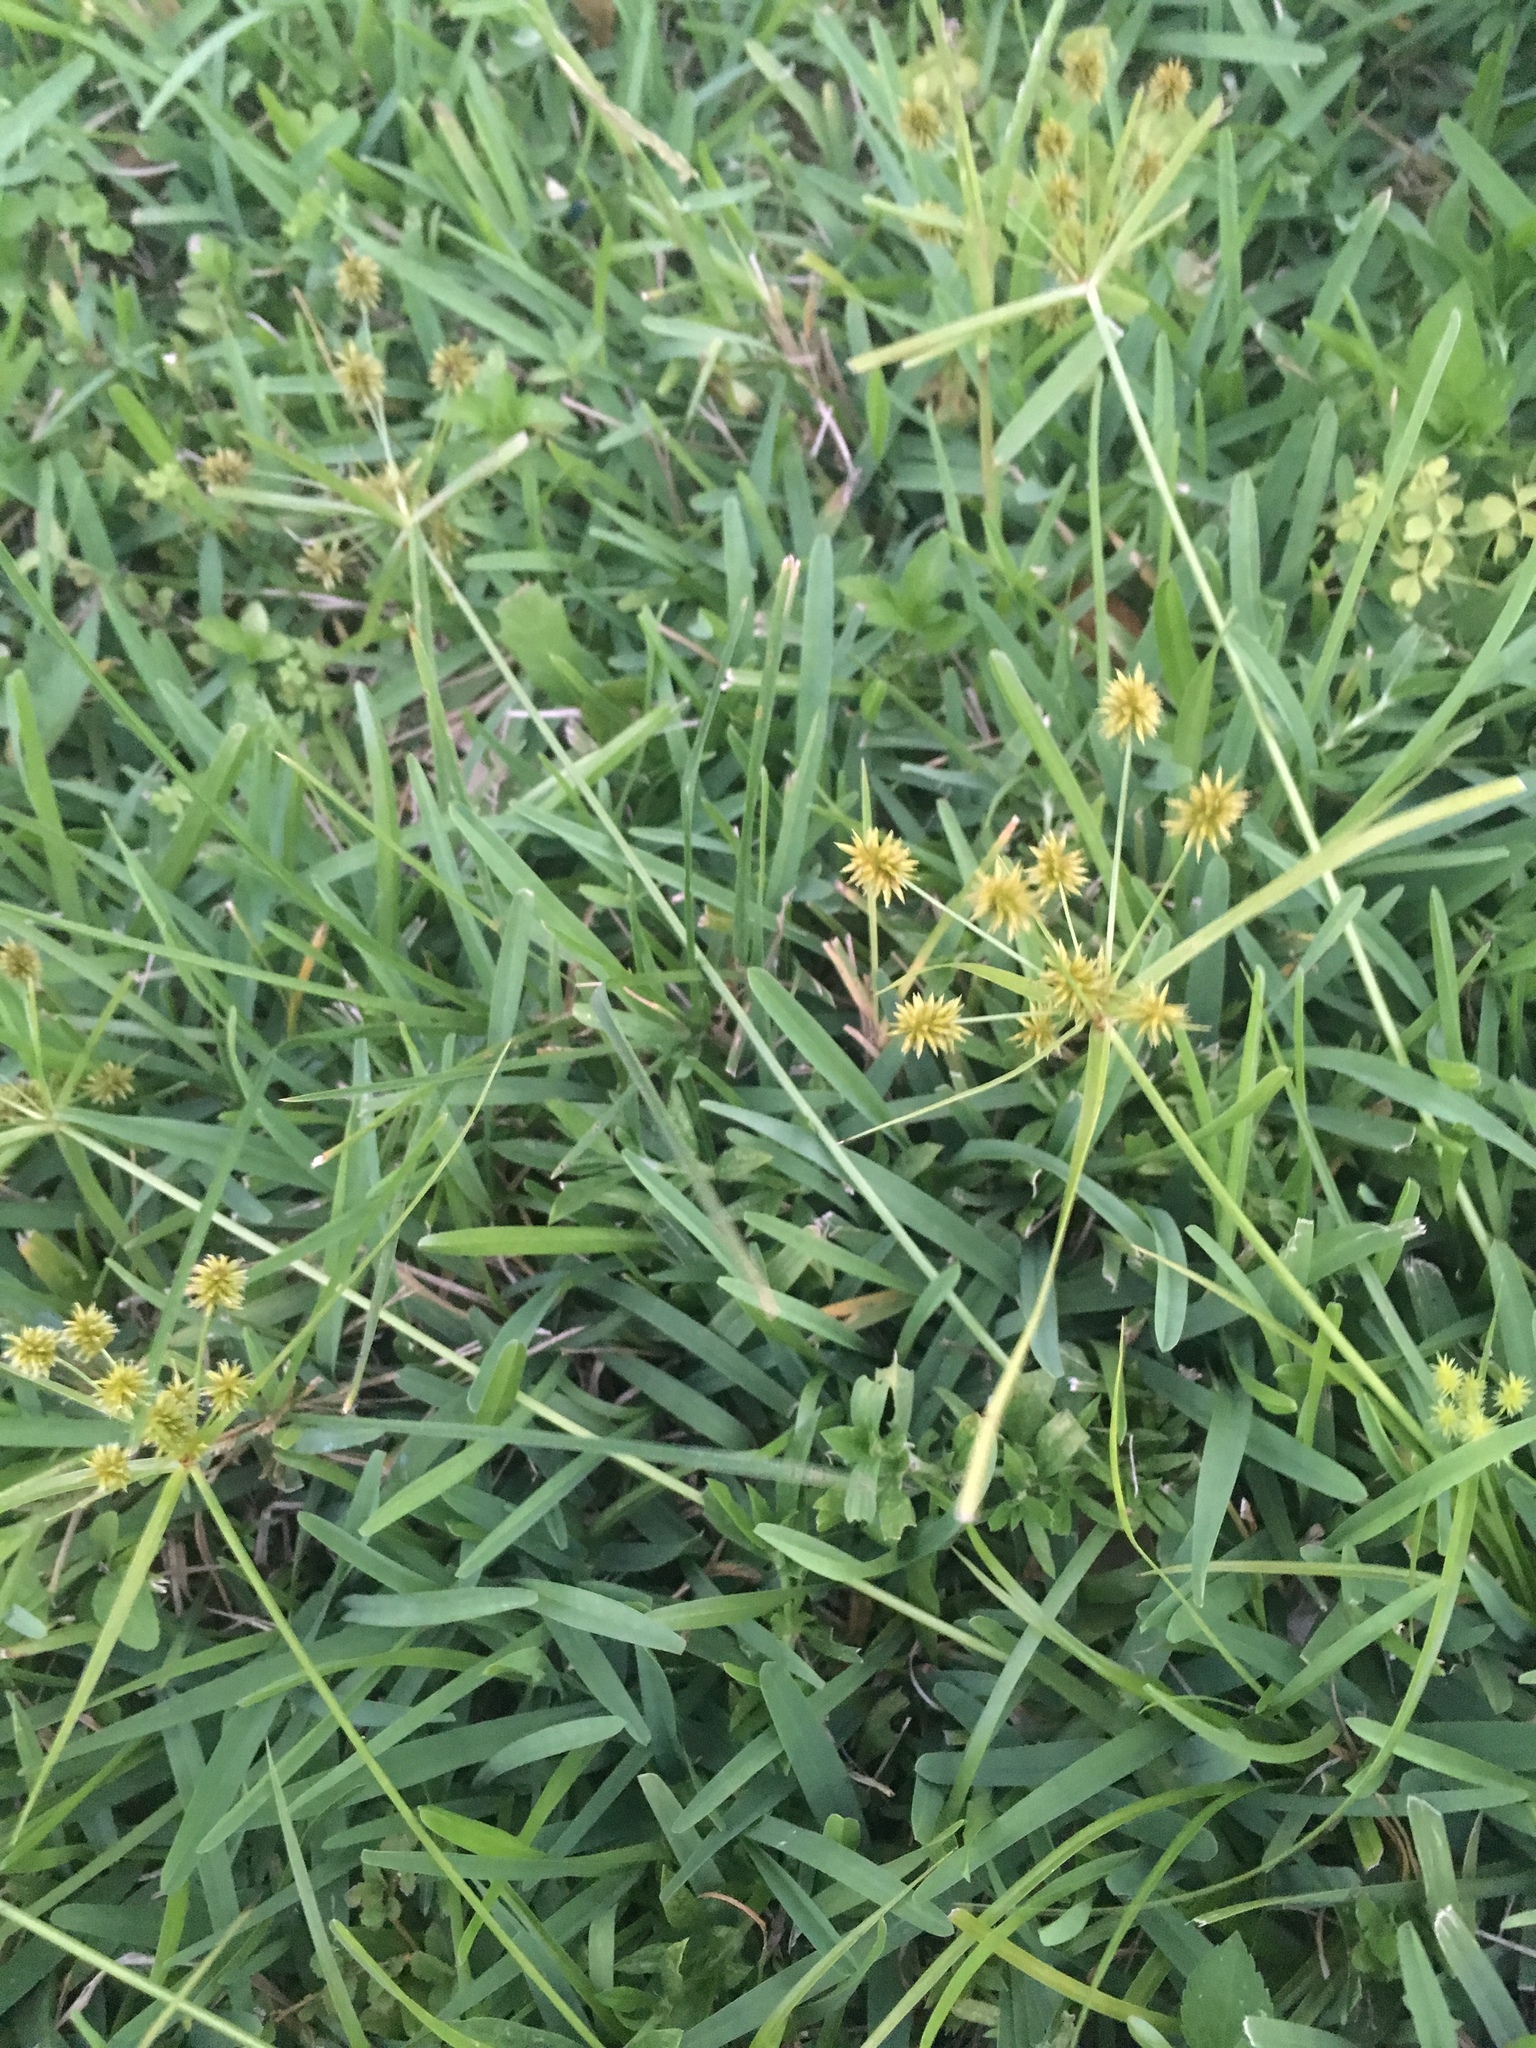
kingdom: Plantae
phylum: Tracheophyta
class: Liliopsida
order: Poales
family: Cyperaceae
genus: Cyperus
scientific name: Cyperus croceus
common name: Baldwin's flatsedge
